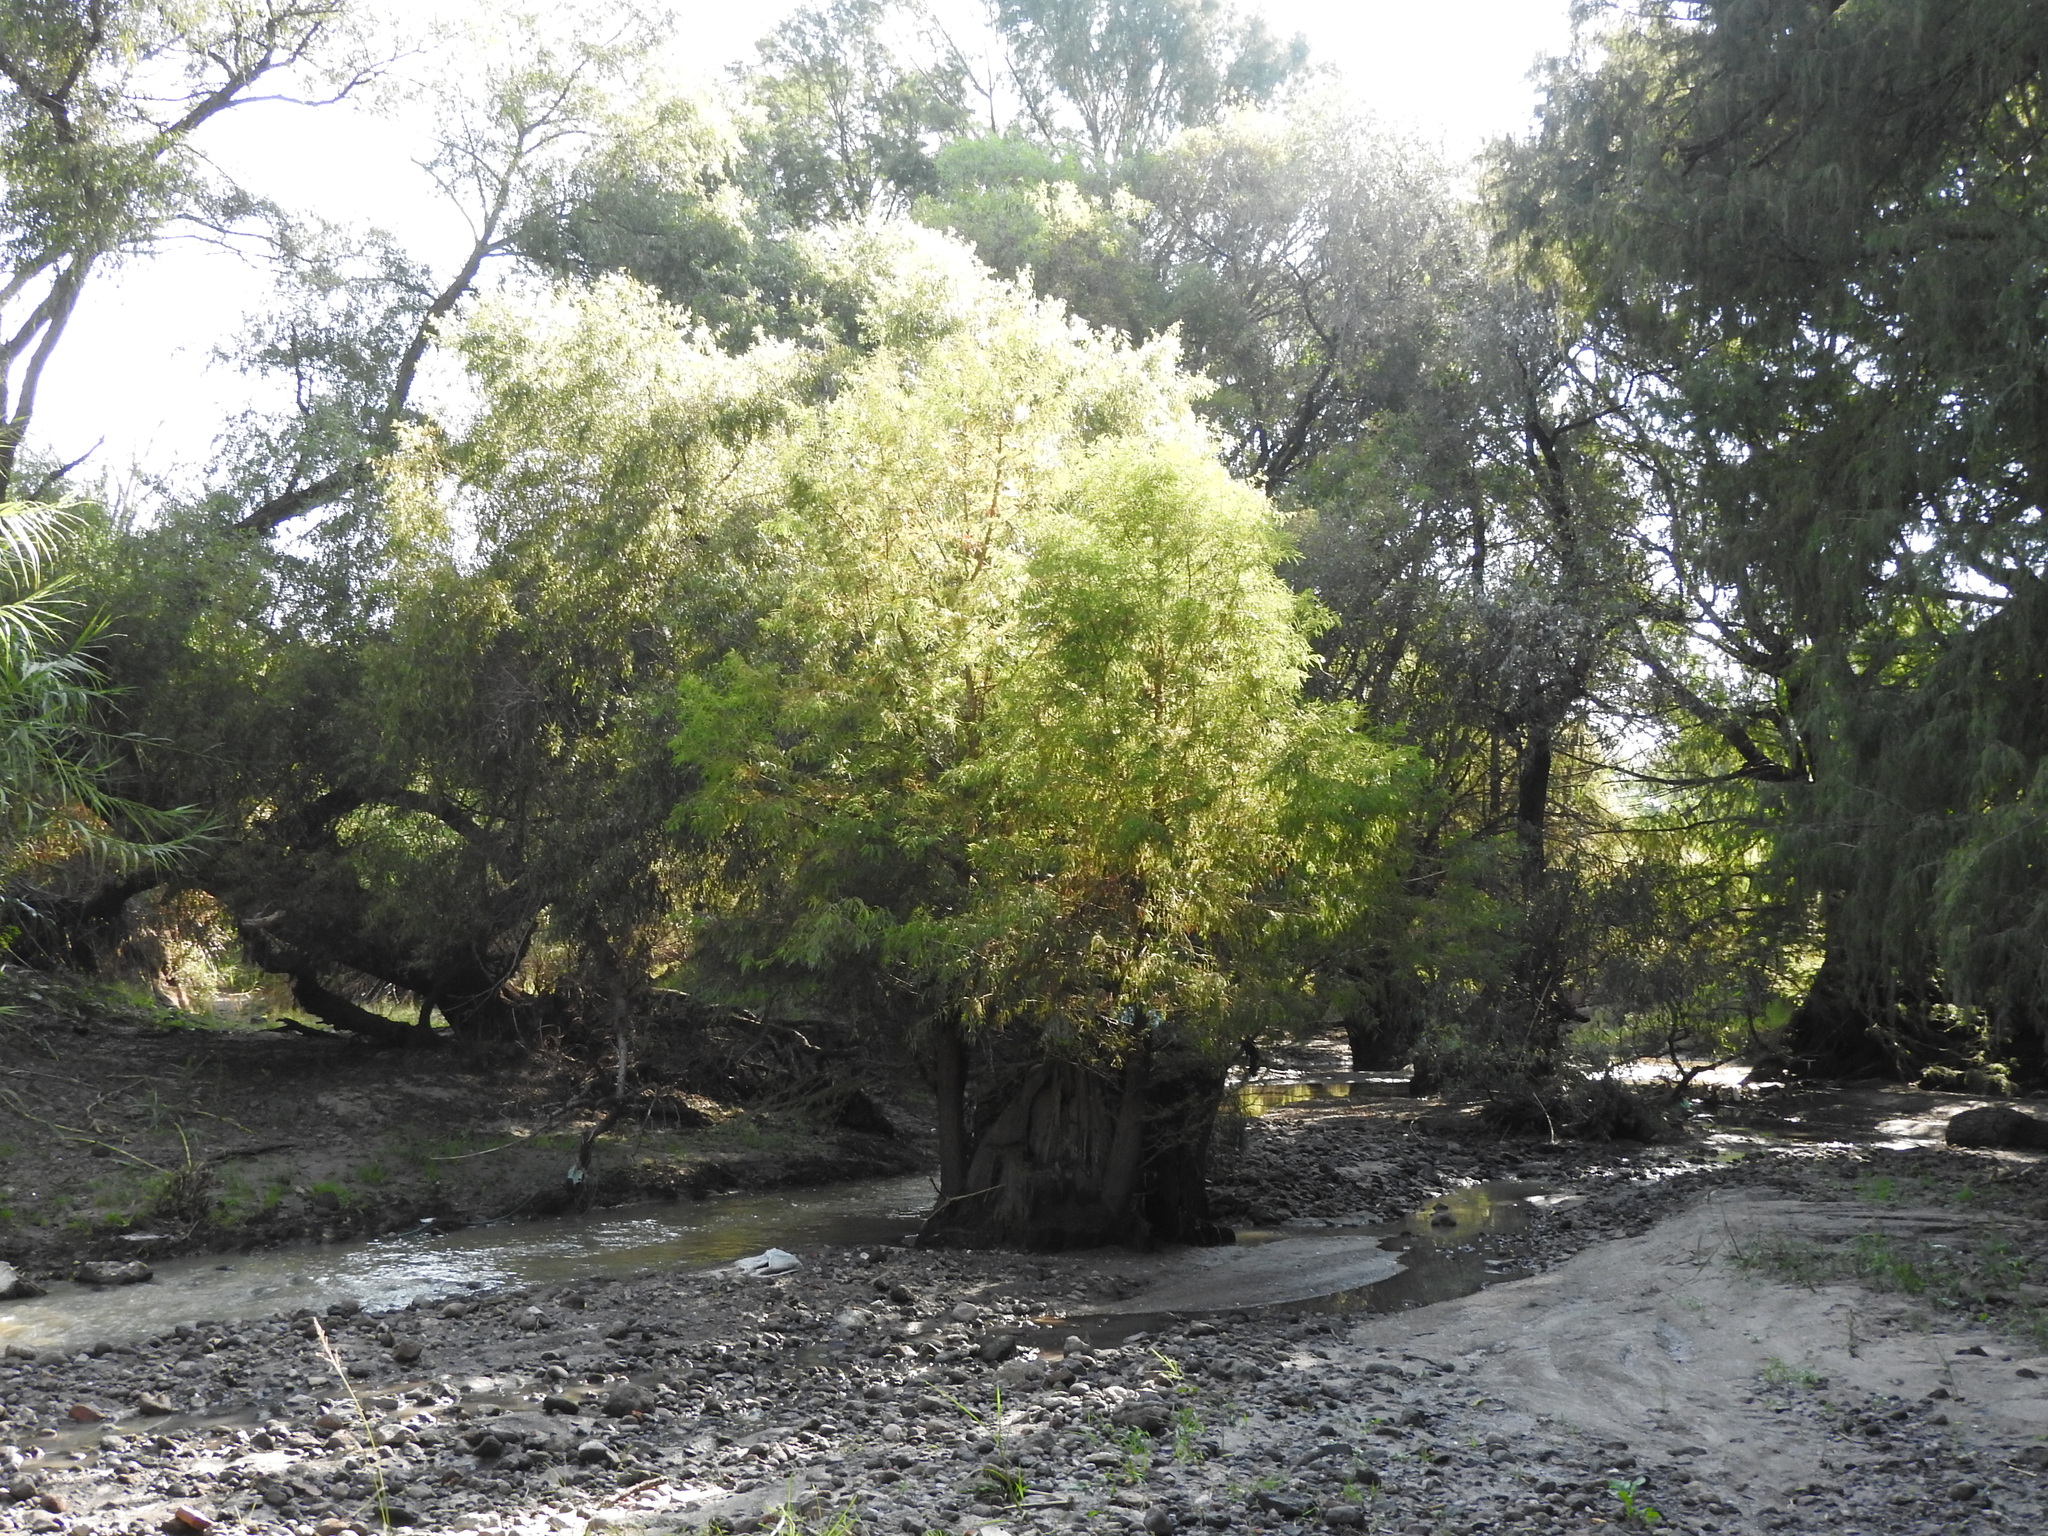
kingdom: Plantae
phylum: Tracheophyta
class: Pinopsida
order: Pinales
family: Cupressaceae
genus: Taxodium
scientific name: Taxodium mucronatum
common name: Montezume bald cypress
